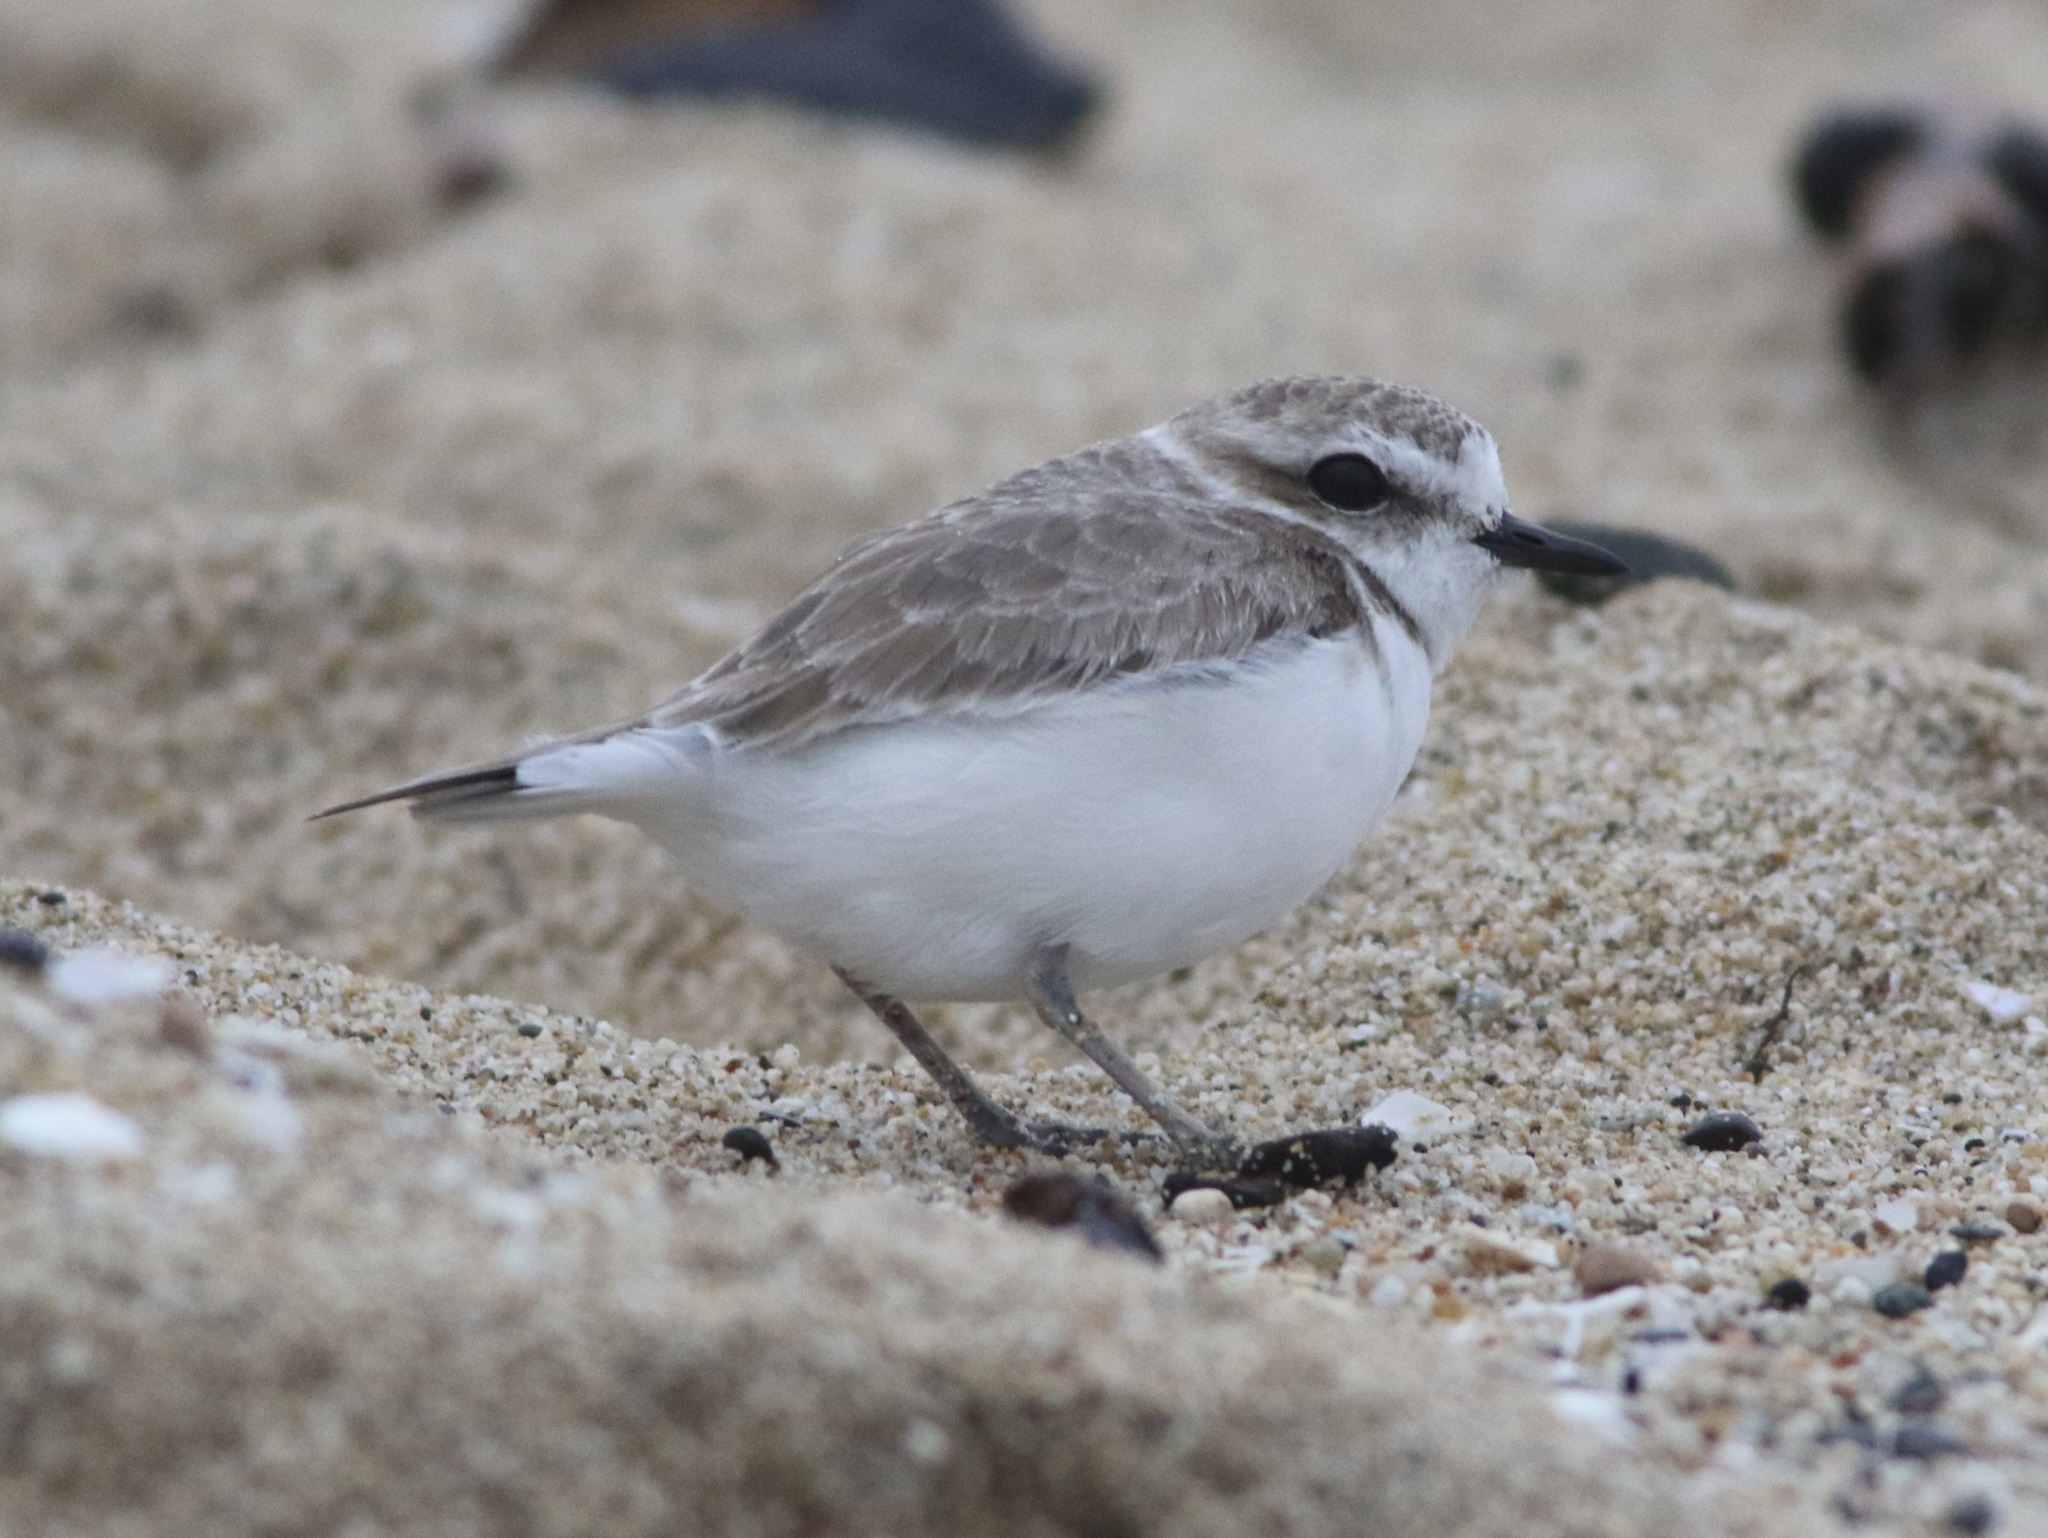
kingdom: Animalia
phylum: Chordata
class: Aves
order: Charadriiformes
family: Charadriidae
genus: Anarhynchus
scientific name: Anarhynchus
